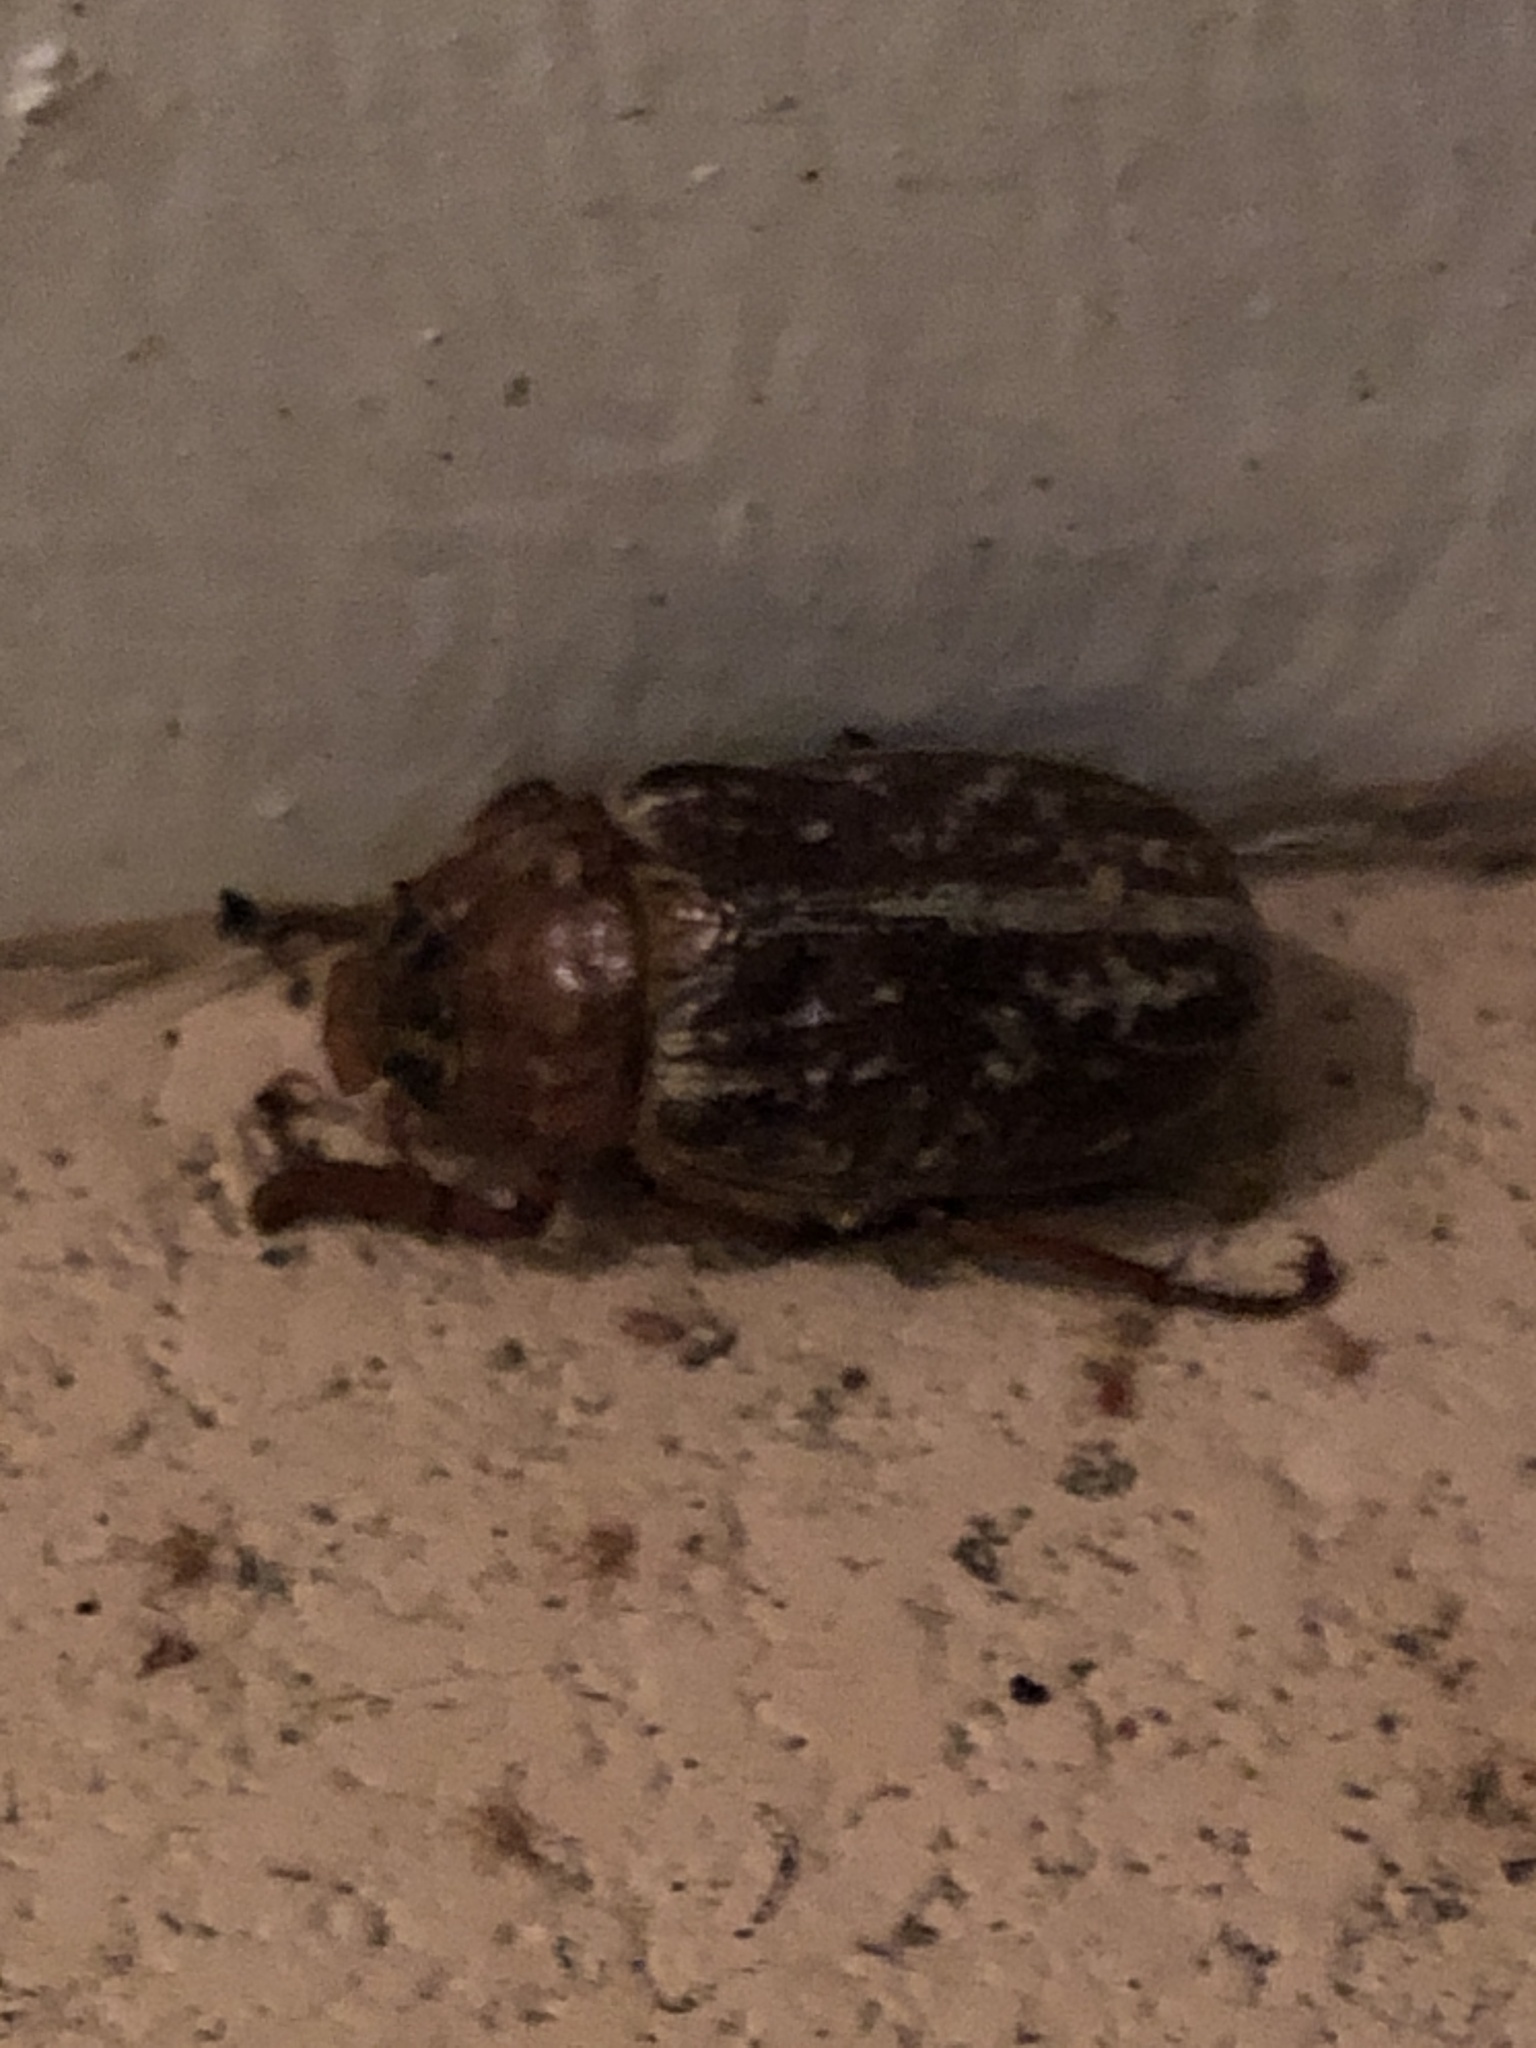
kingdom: Animalia
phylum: Arthropoda
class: Insecta
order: Coleoptera
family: Scarabaeidae
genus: Polyphylla
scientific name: Polyphylla variolosa
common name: Variegated june beetle
